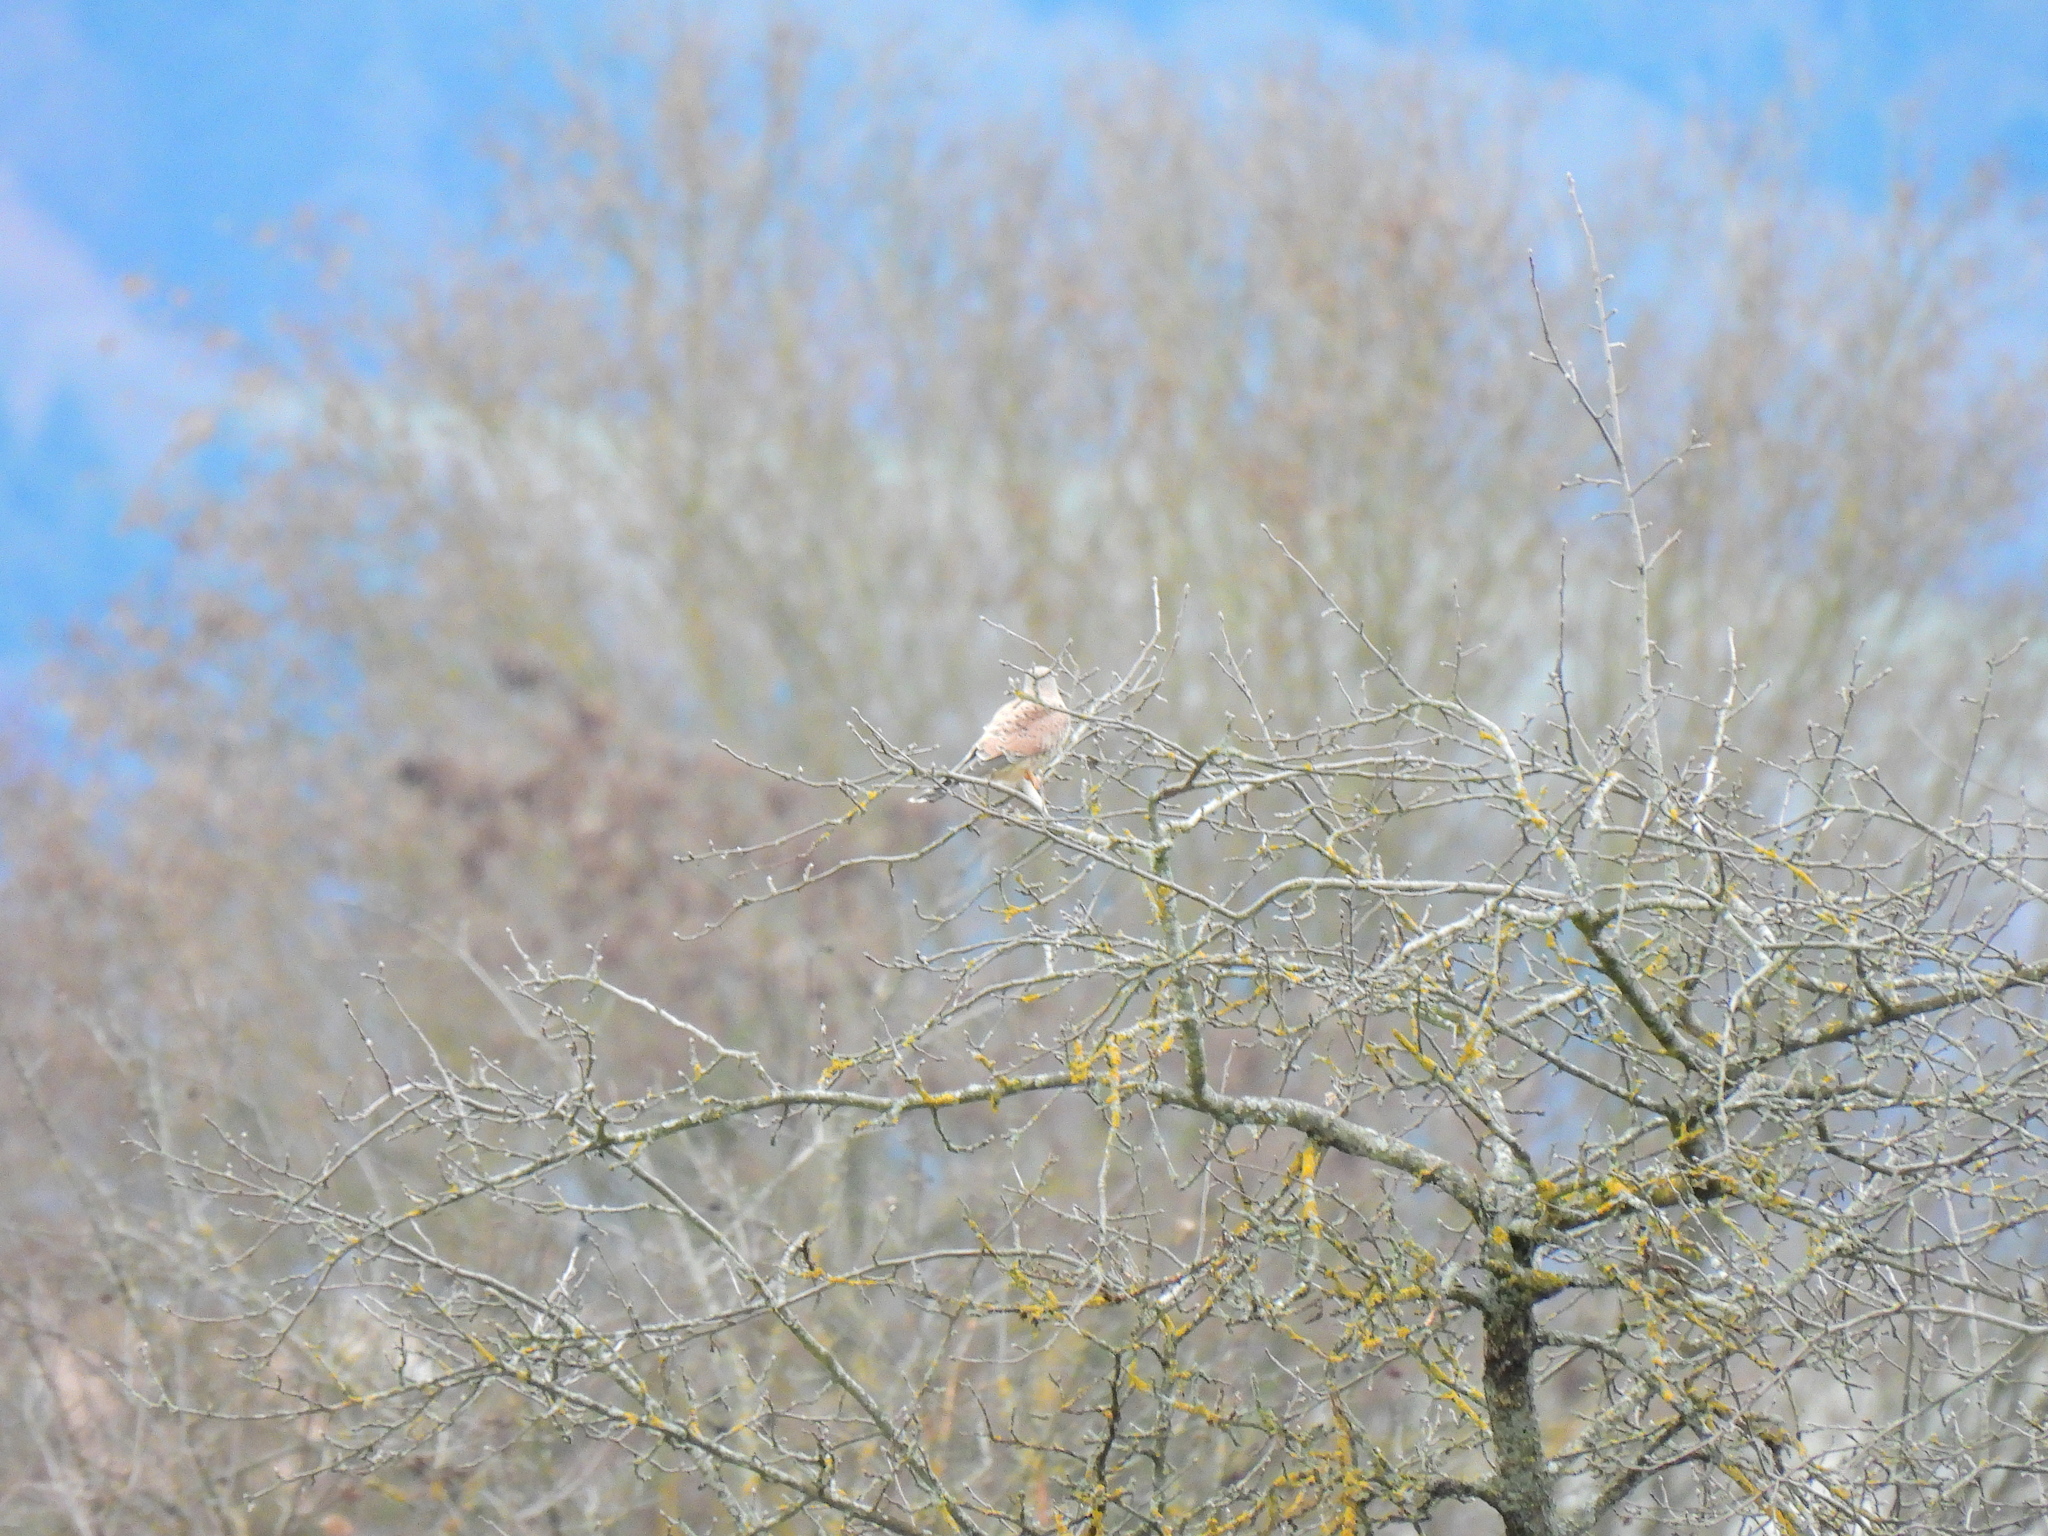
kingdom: Animalia
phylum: Chordata
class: Aves
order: Falconiformes
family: Falconidae
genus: Falco
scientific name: Falco tinnunculus
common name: Common kestrel
